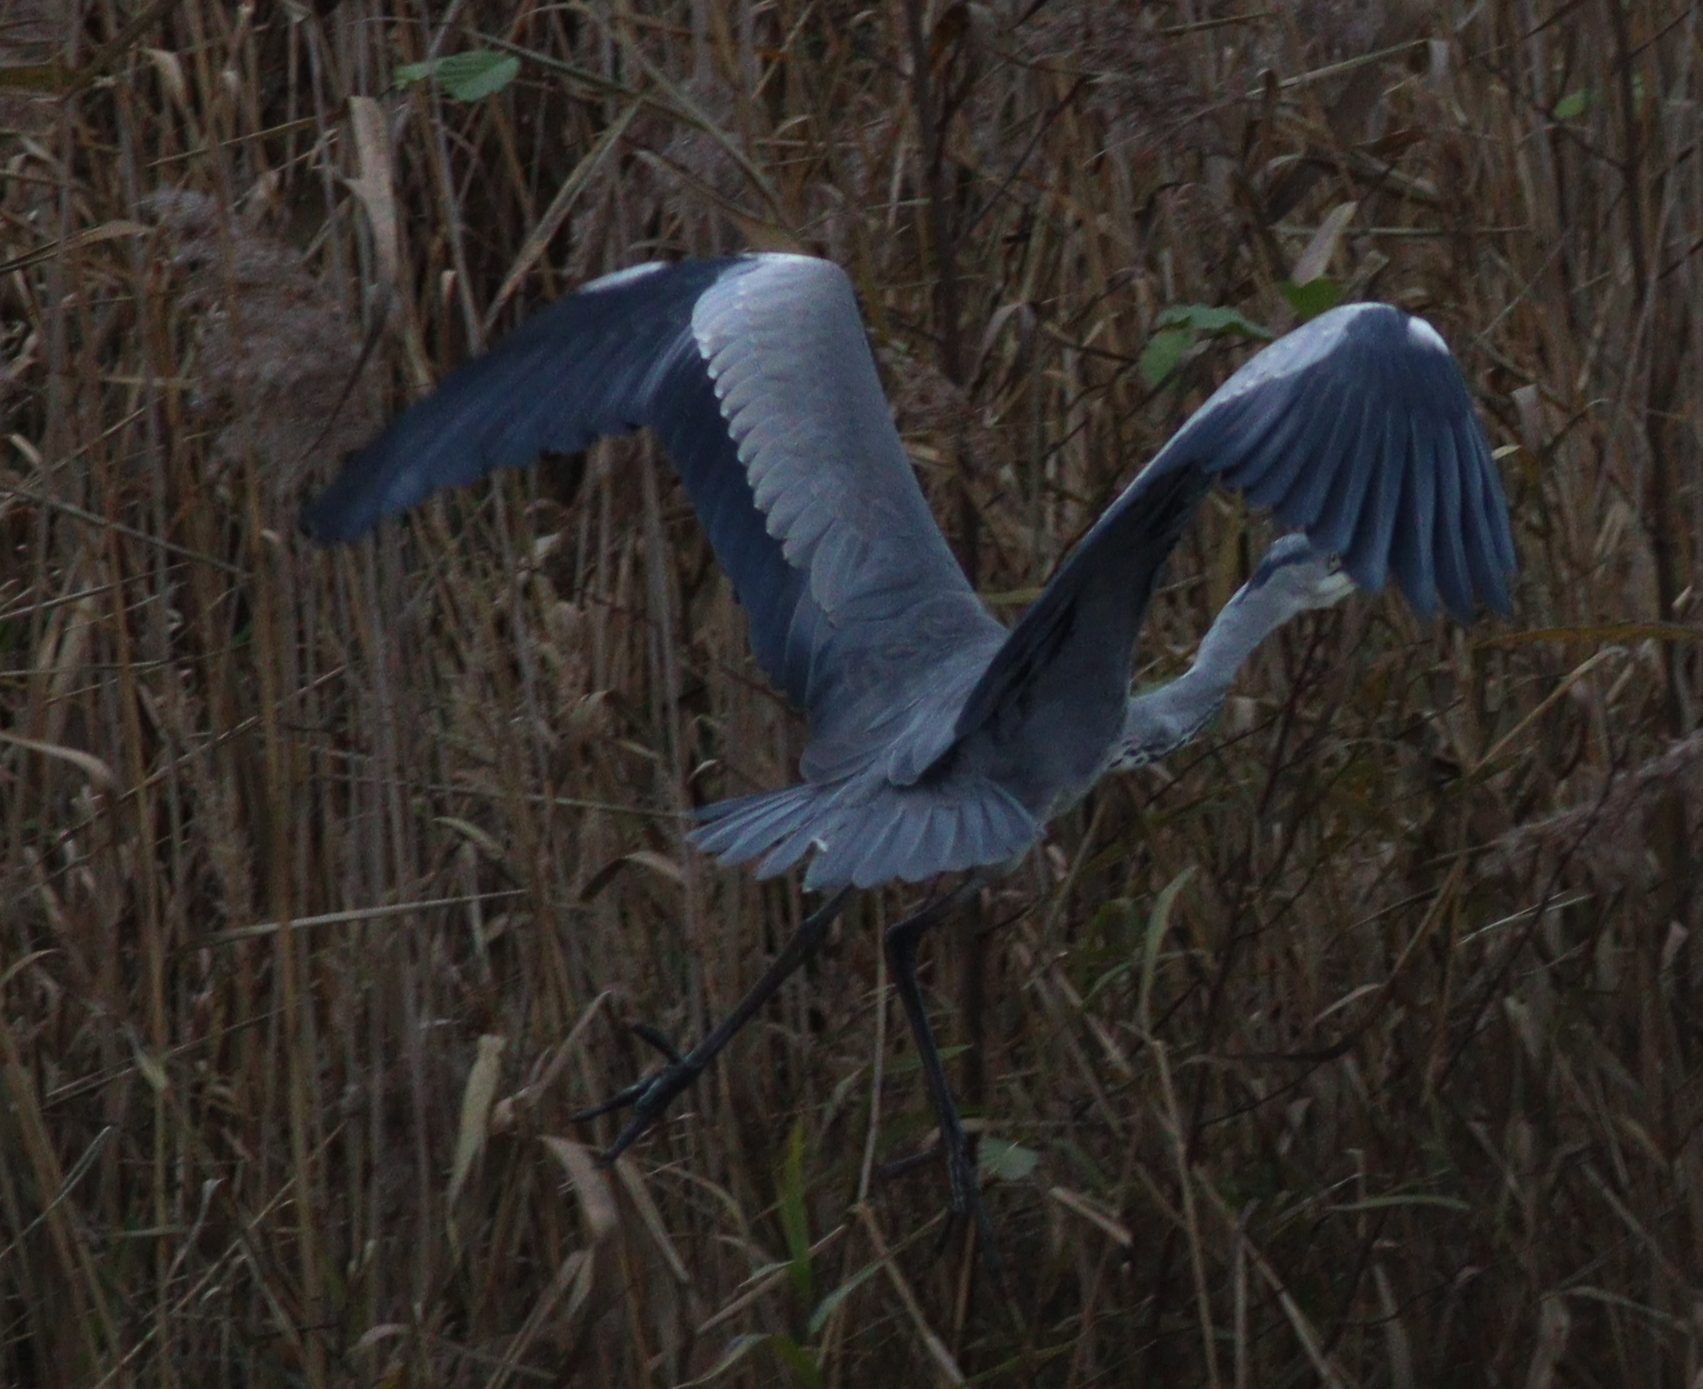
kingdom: Animalia
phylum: Chordata
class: Aves
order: Pelecaniformes
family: Ardeidae
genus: Ardea
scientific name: Ardea cinerea
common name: Grey heron
